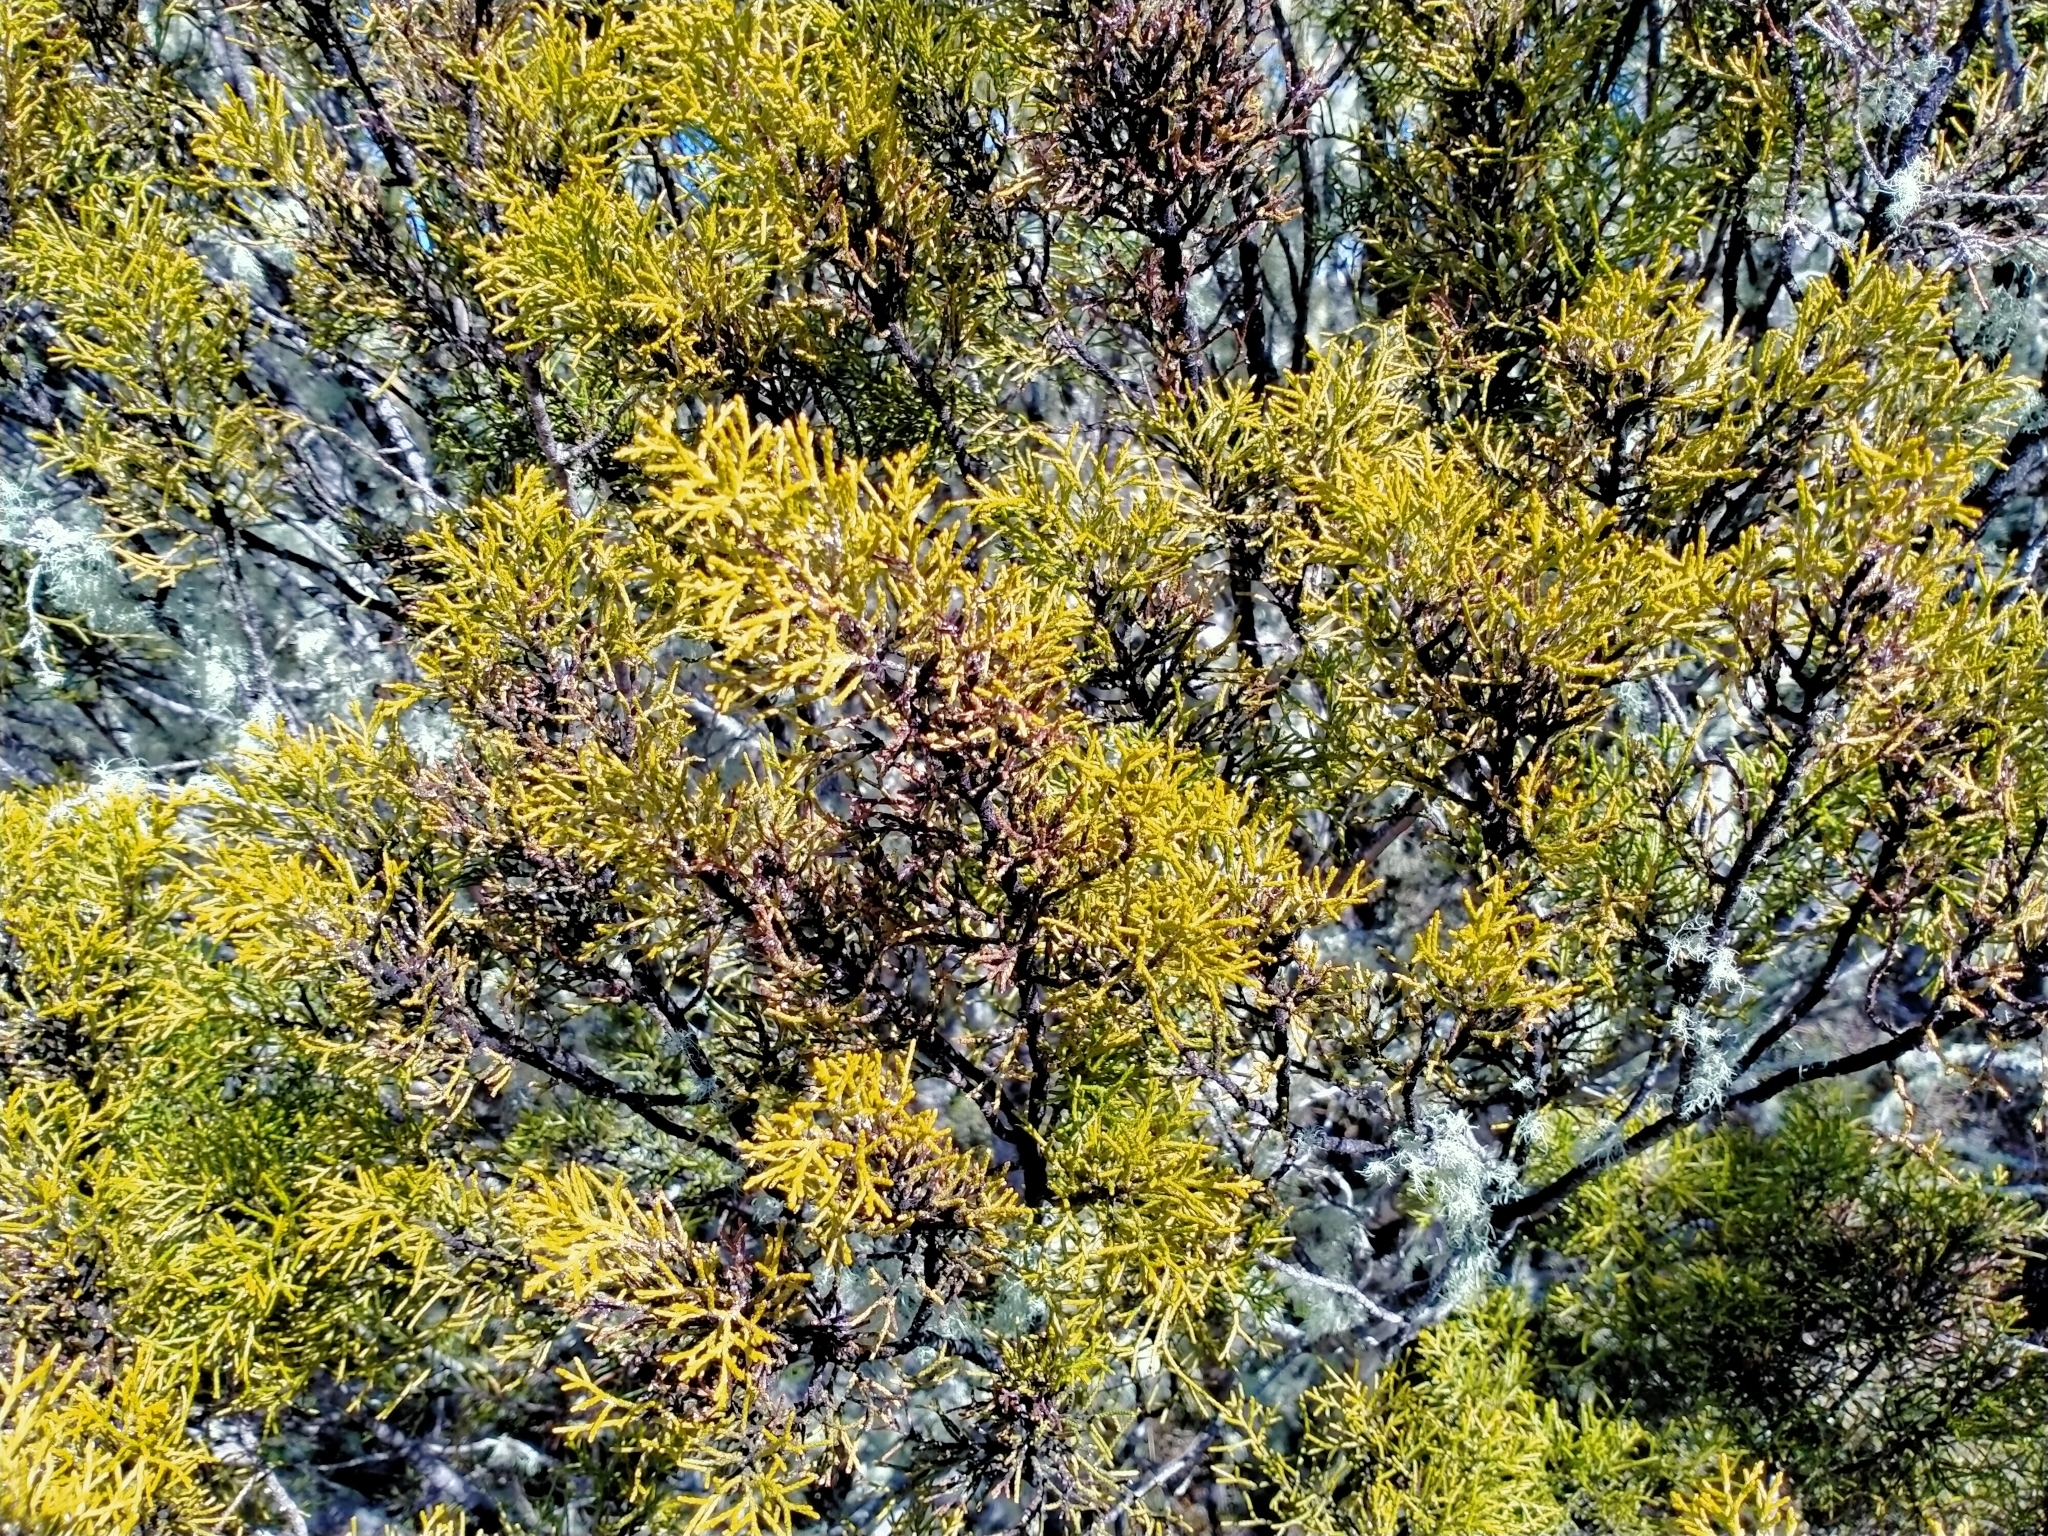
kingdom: Plantae
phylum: Tracheophyta
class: Pinopsida
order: Pinales
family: Podocarpaceae
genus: Halocarpus
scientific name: Halocarpus bidwillii
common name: Bog pine
